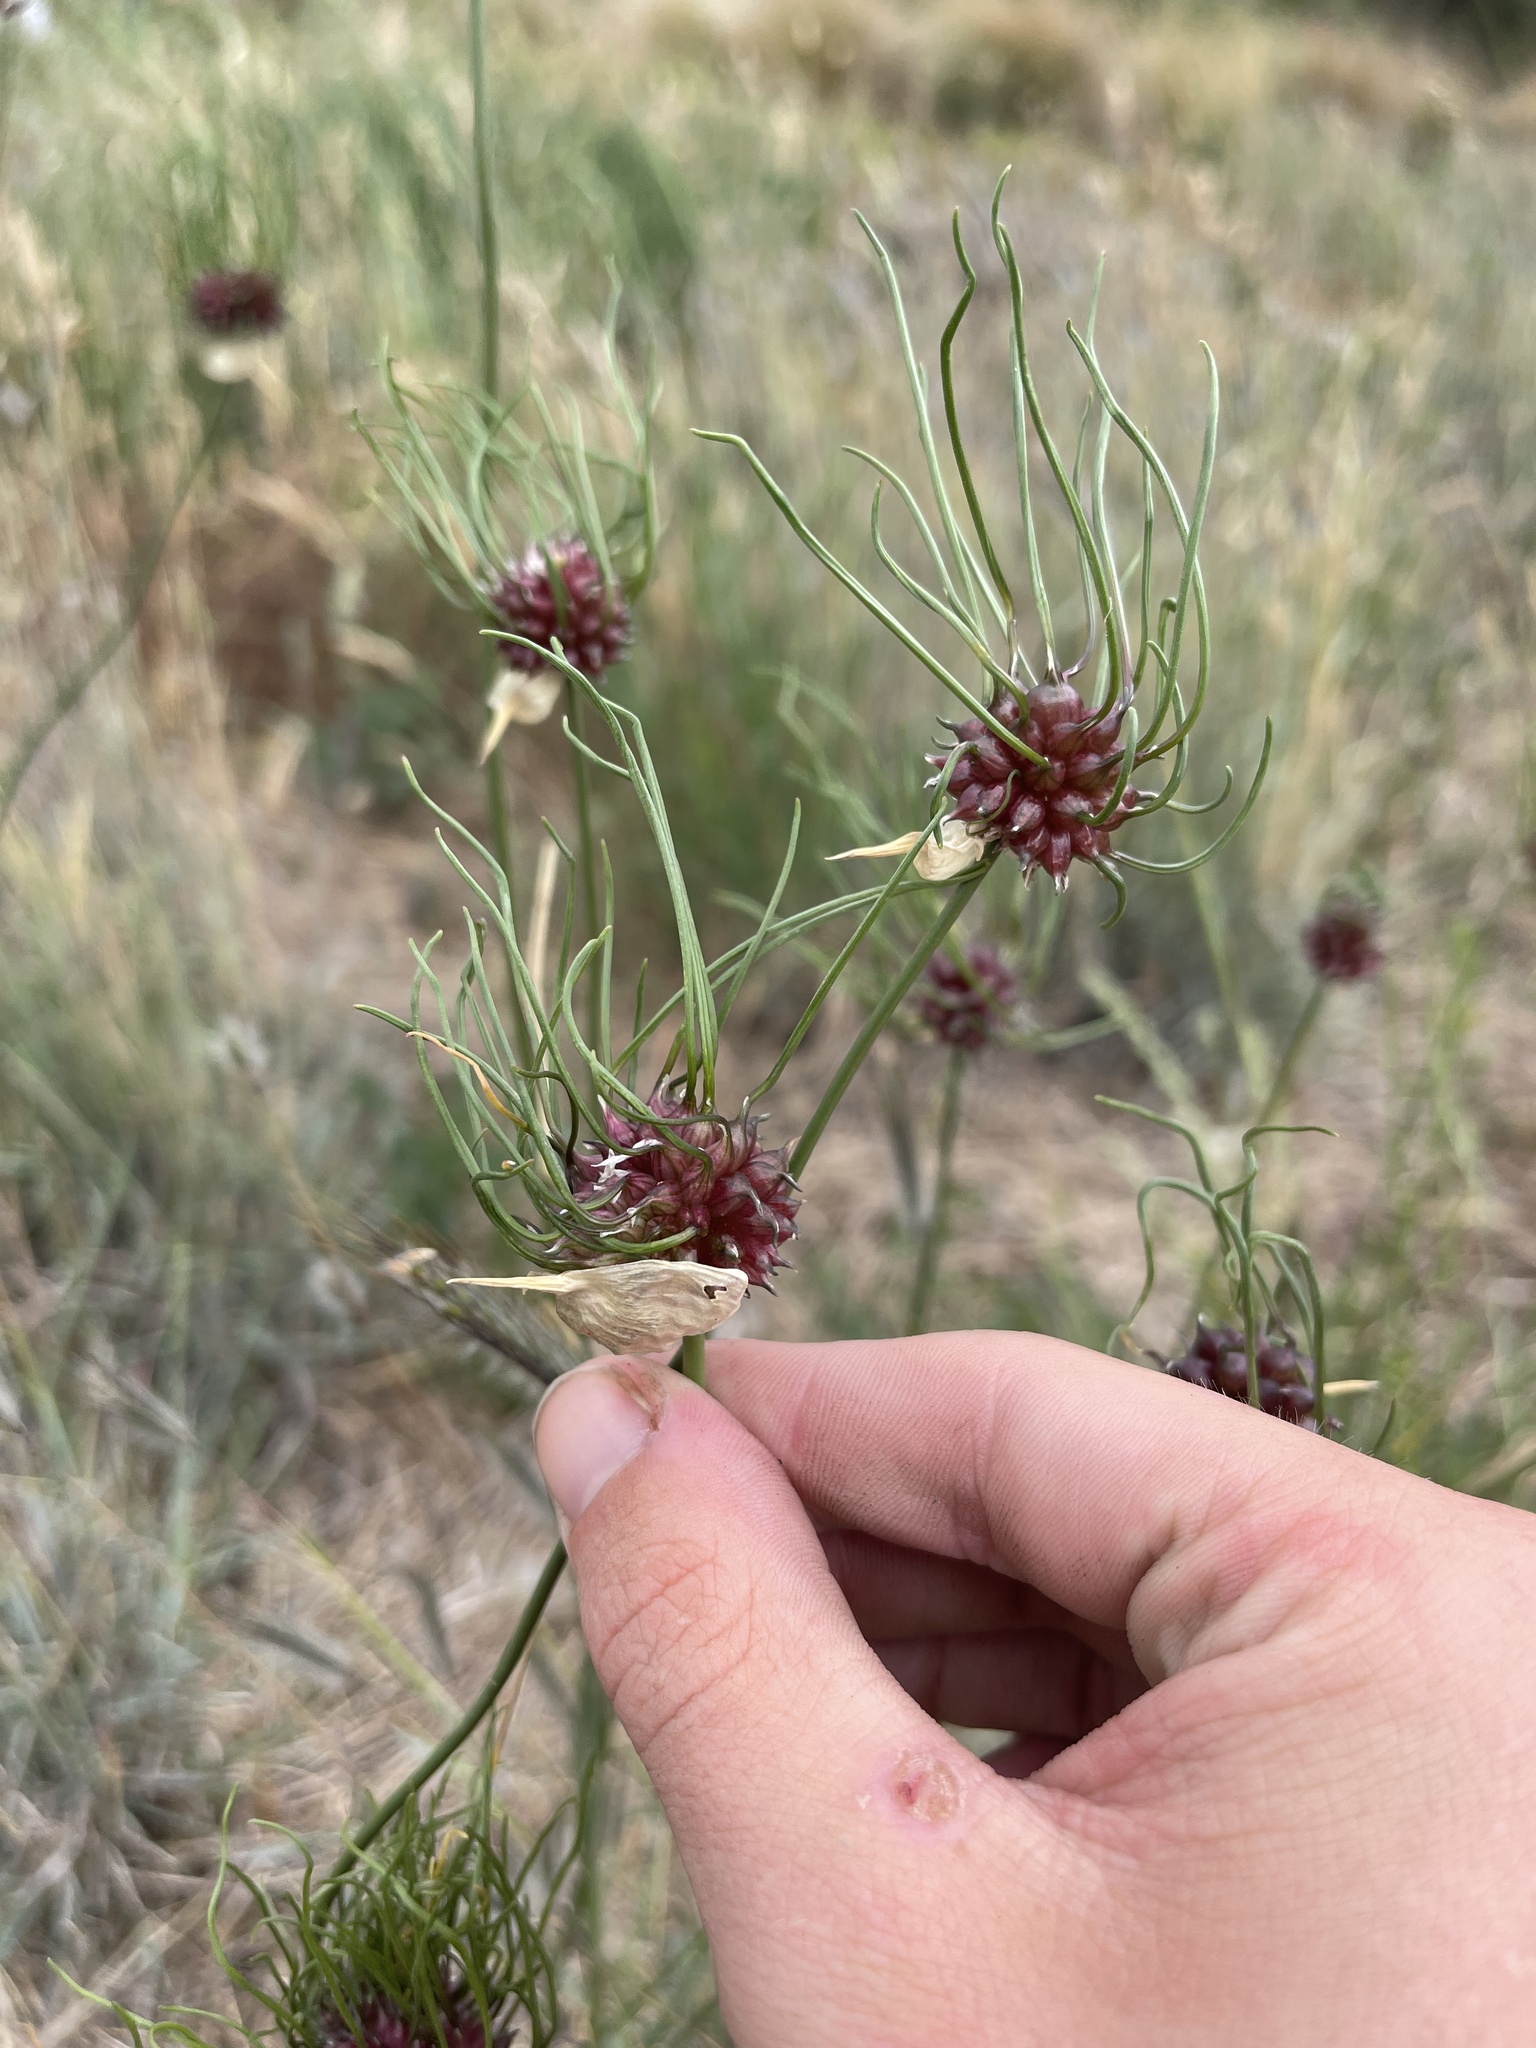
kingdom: Plantae
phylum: Tracheophyta
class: Liliopsida
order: Asparagales
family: Amaryllidaceae
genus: Allium
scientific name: Allium vineale
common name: Crow garlic
